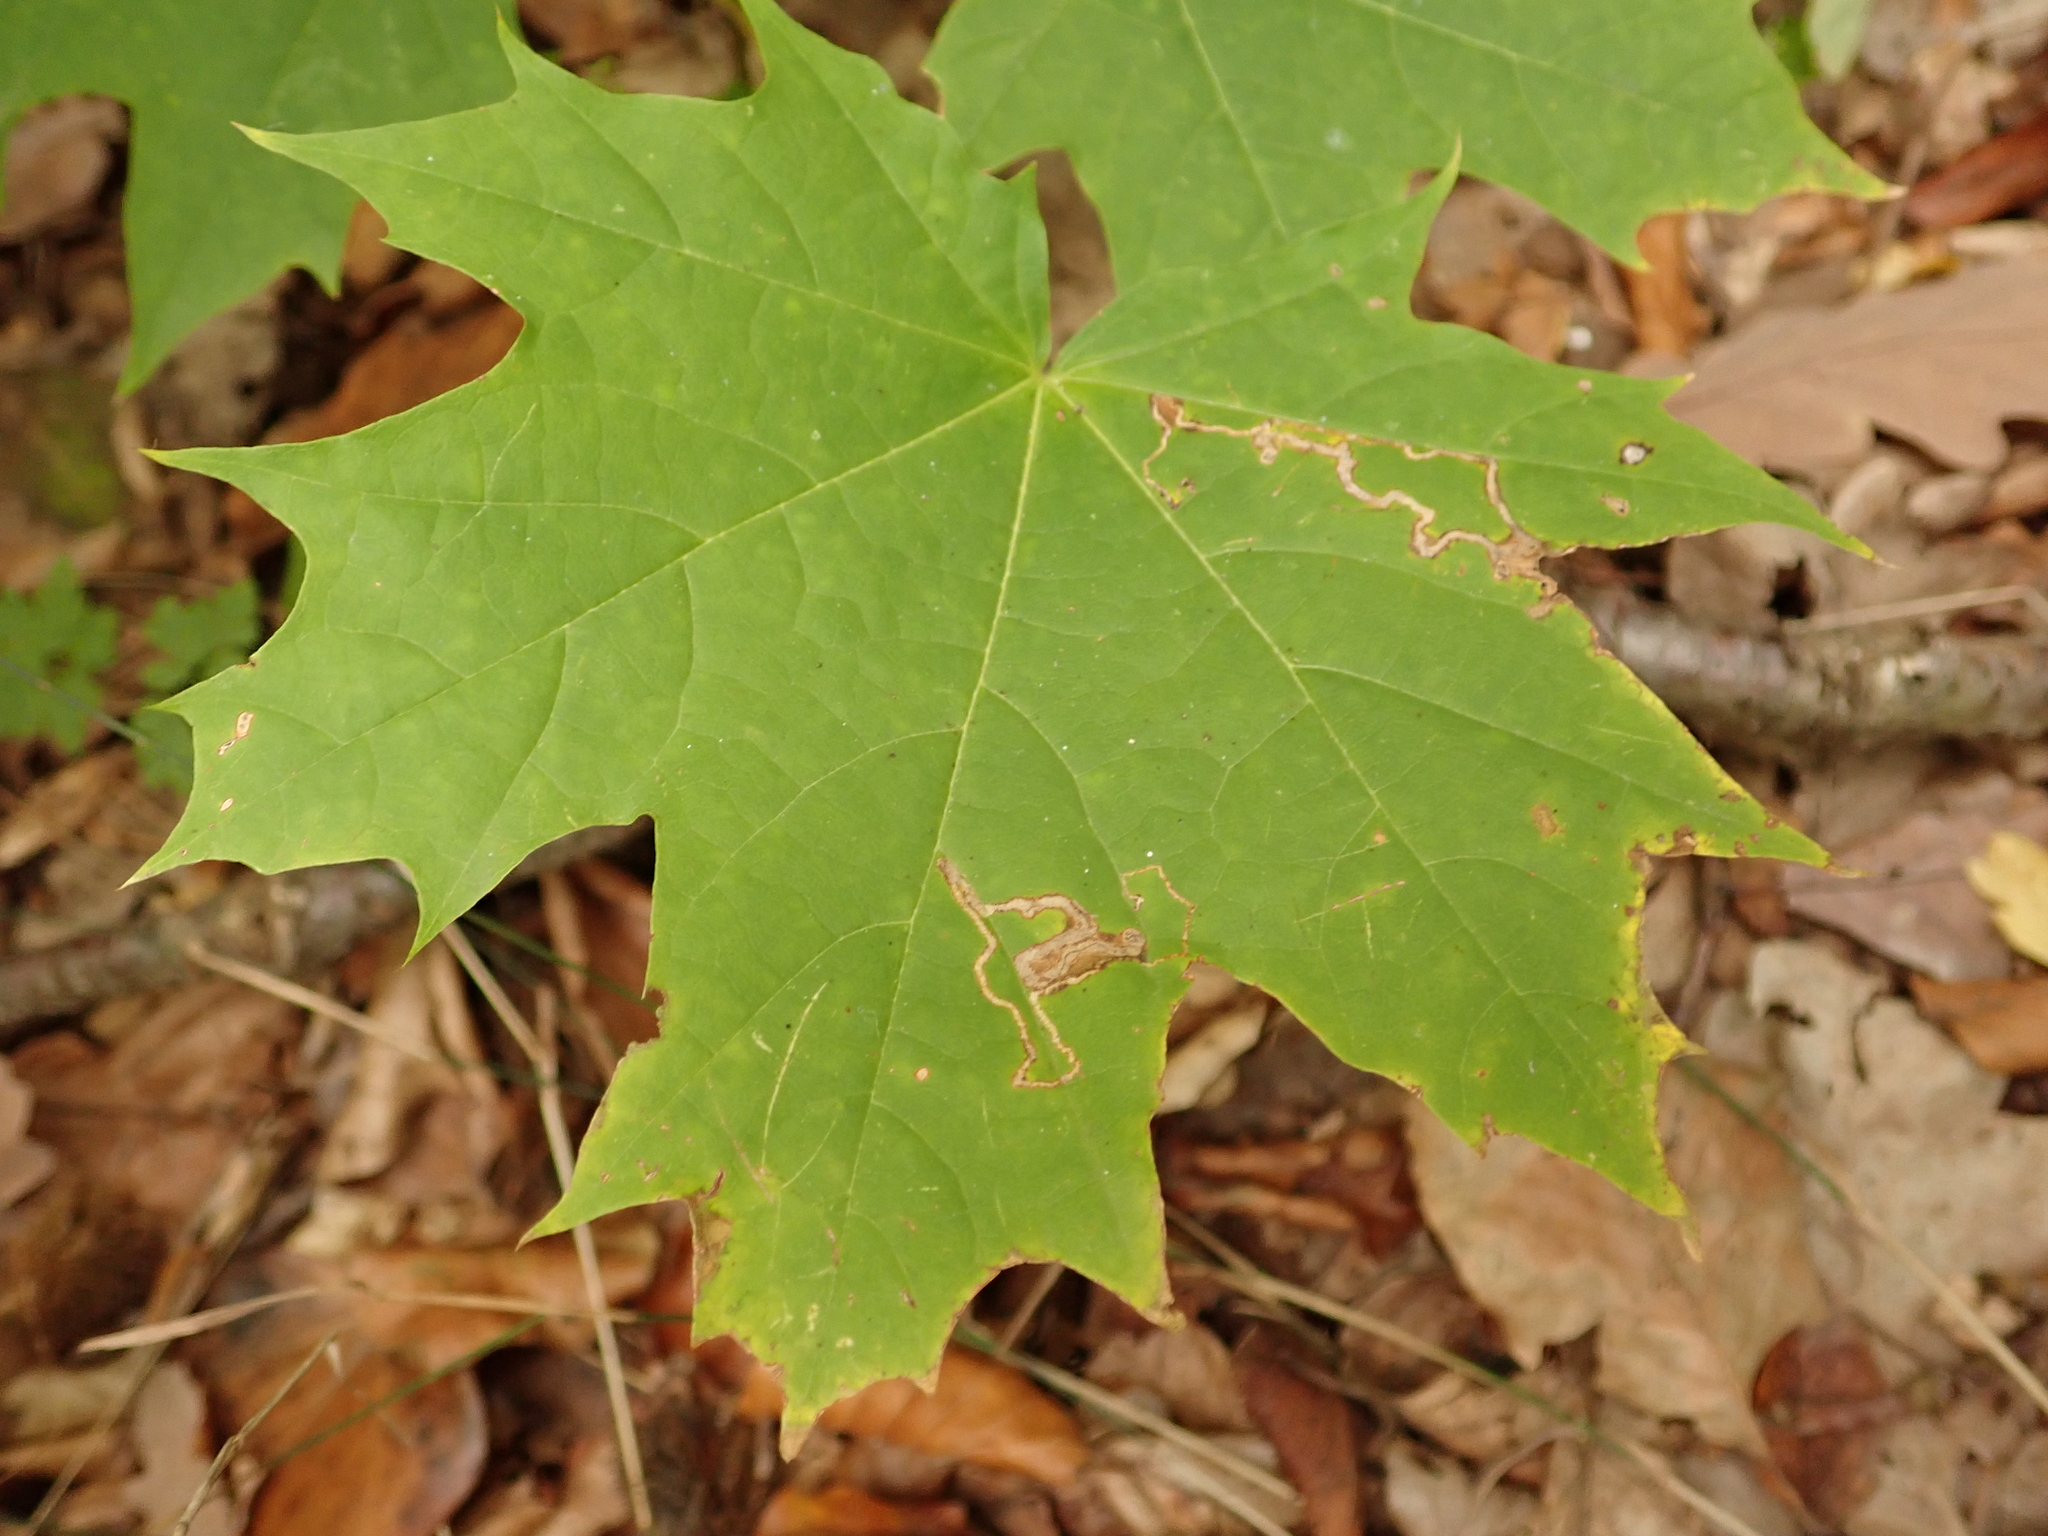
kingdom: Plantae
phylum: Tracheophyta
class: Magnoliopsida
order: Sapindales
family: Sapindaceae
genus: Acer
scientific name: Acer platanoides
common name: Norway maple
